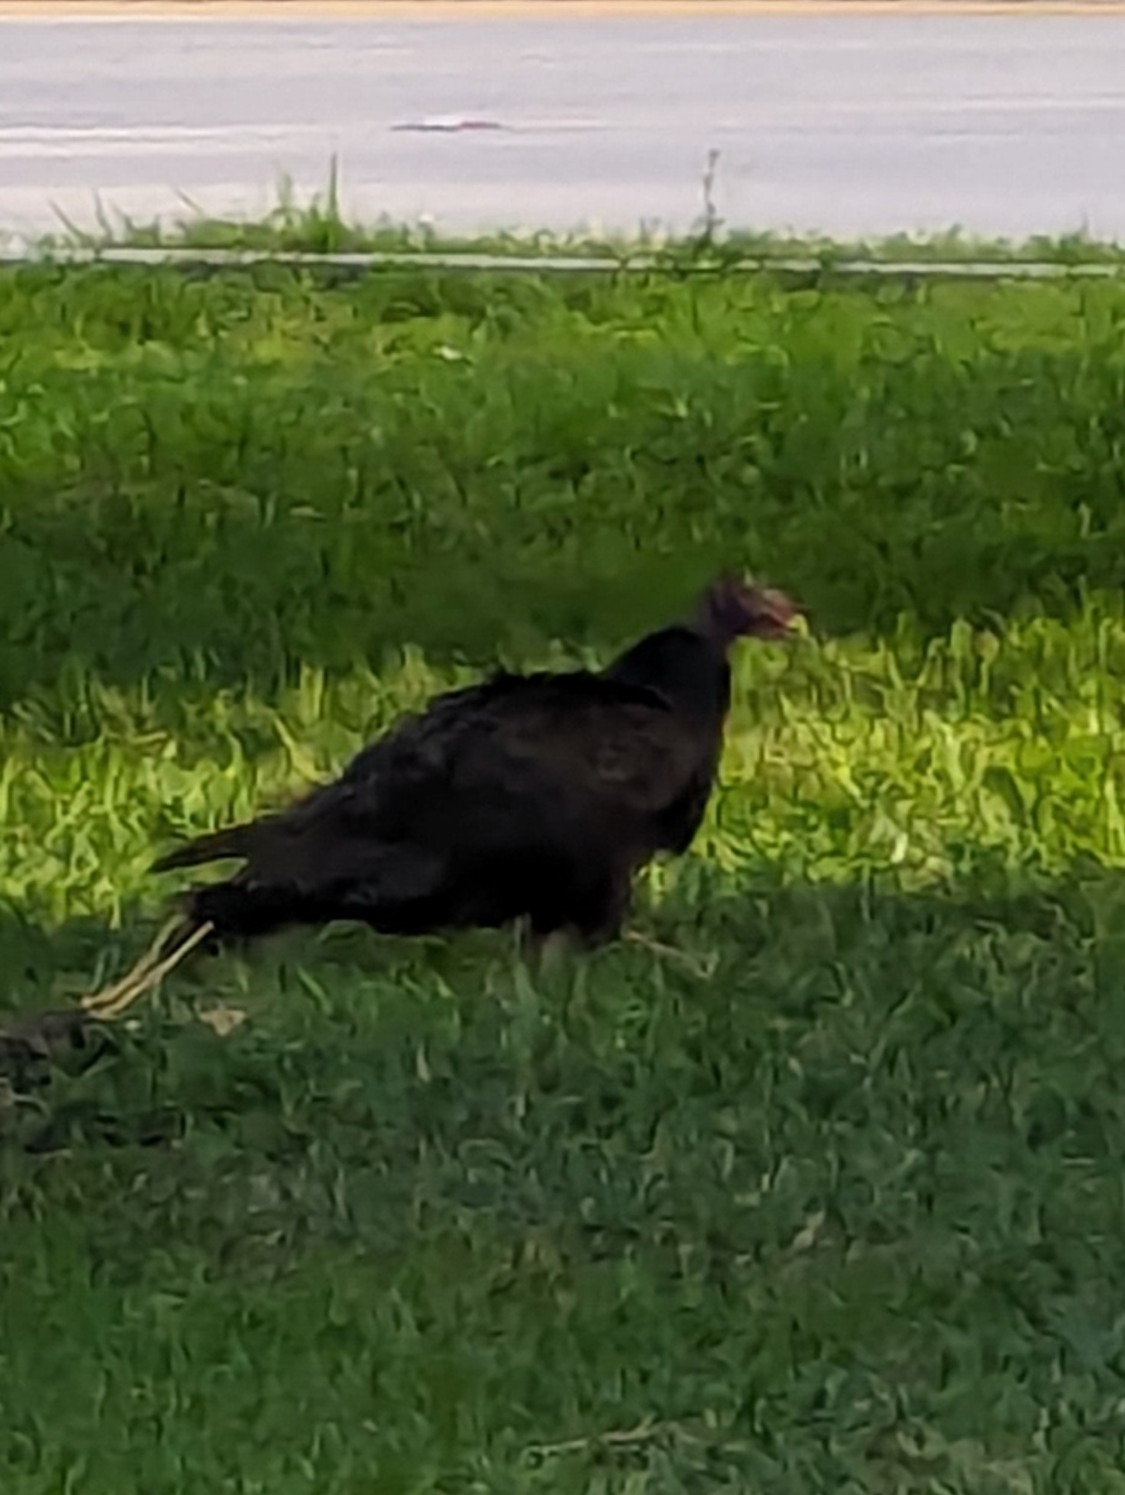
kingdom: Animalia
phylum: Chordata
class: Aves
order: Accipitriformes
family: Cathartidae
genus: Cathartes
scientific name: Cathartes aura
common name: Turkey vulture
